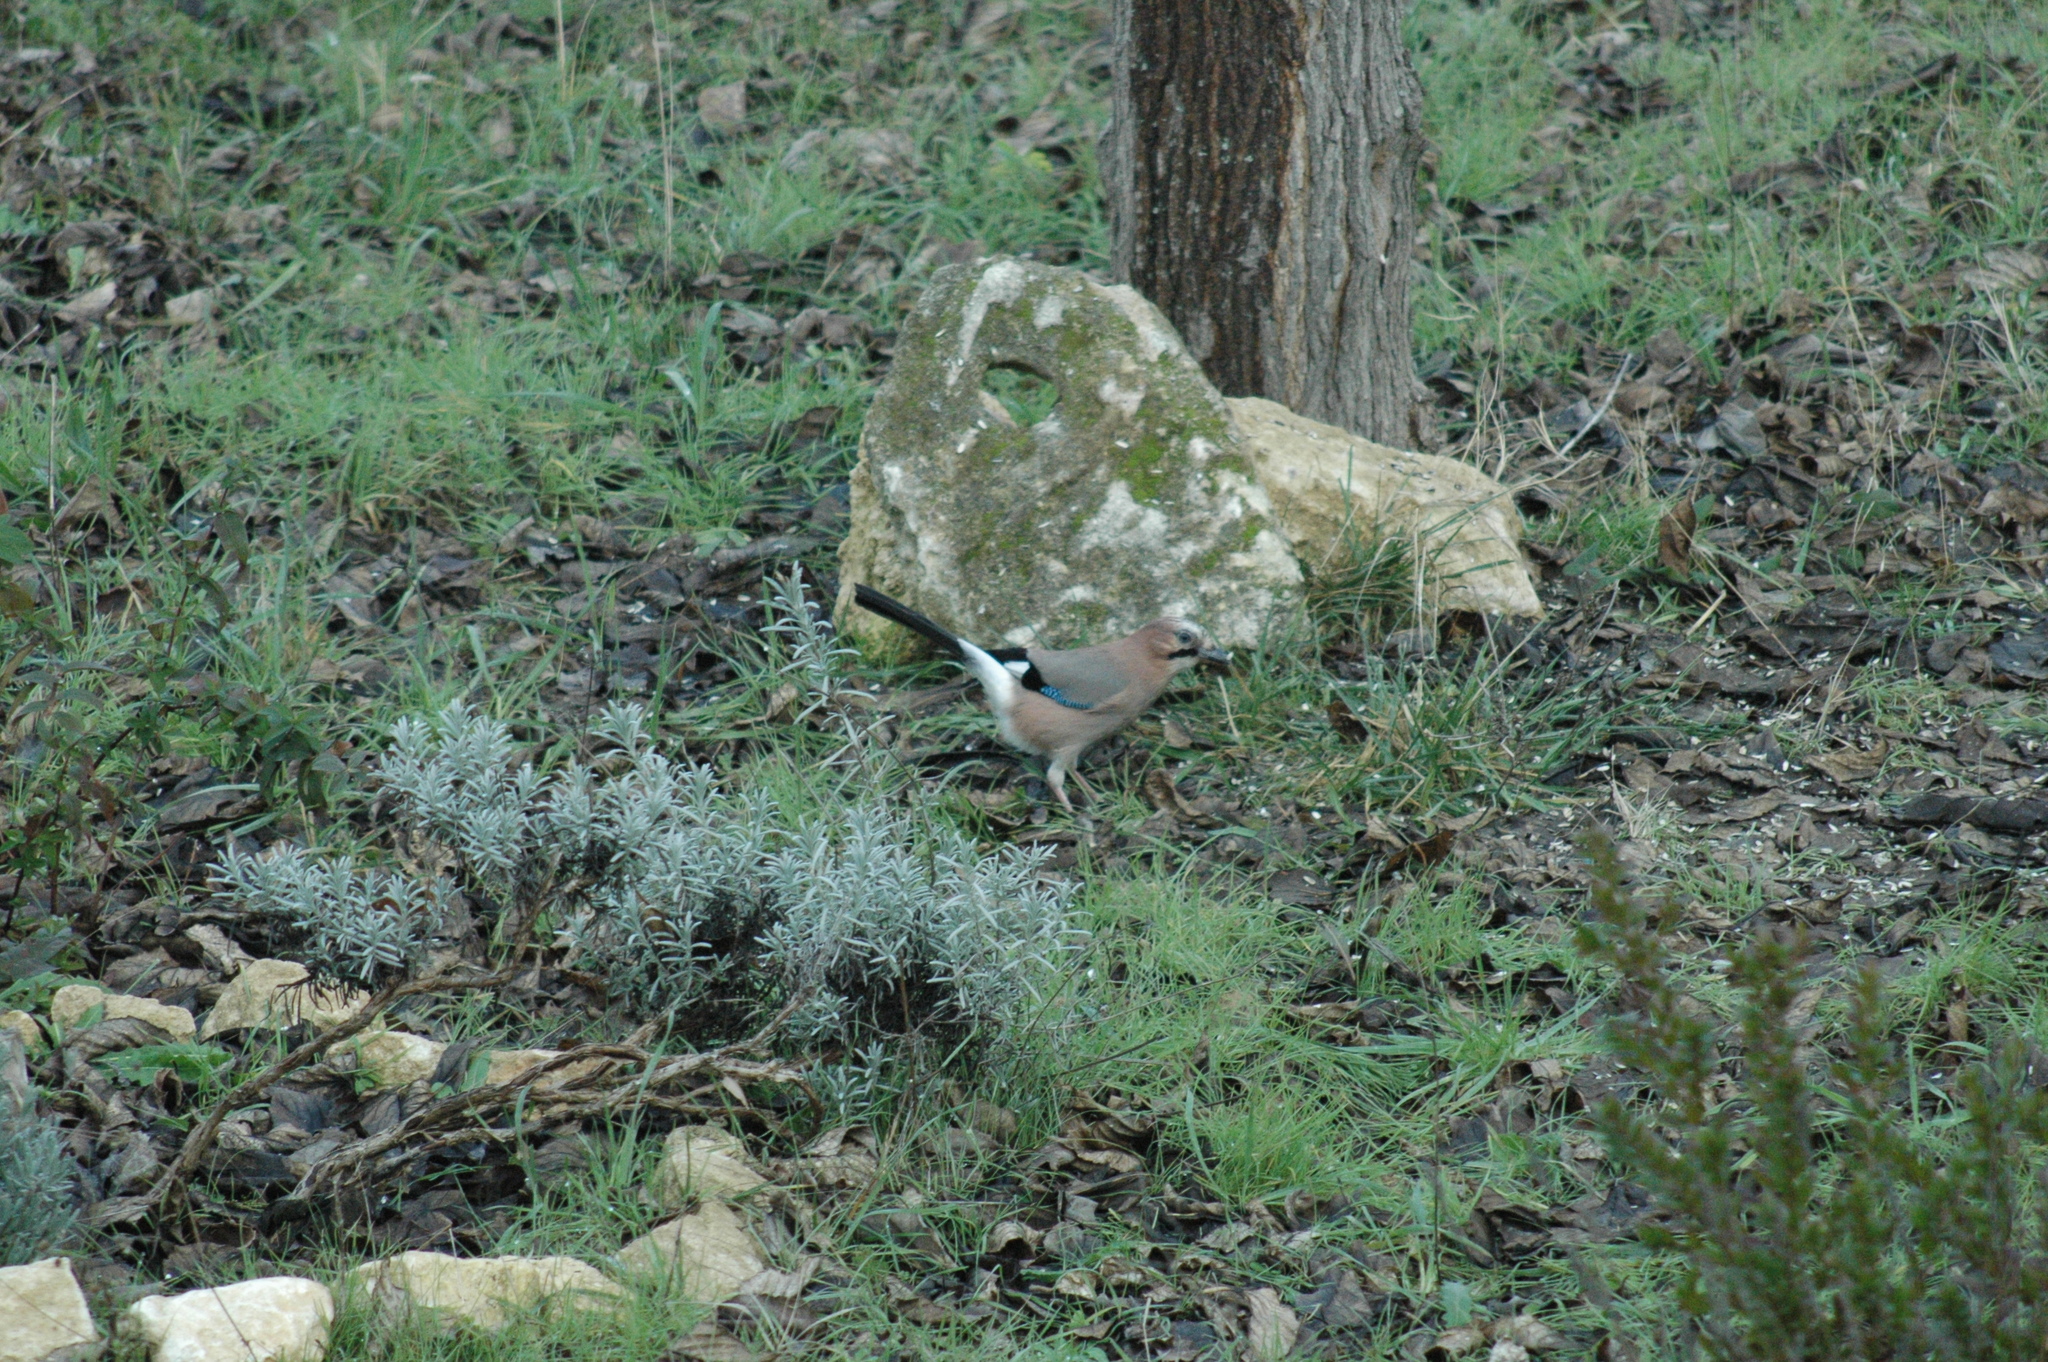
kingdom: Animalia
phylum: Chordata
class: Aves
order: Passeriformes
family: Corvidae
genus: Garrulus
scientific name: Garrulus glandarius
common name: Eurasian jay
